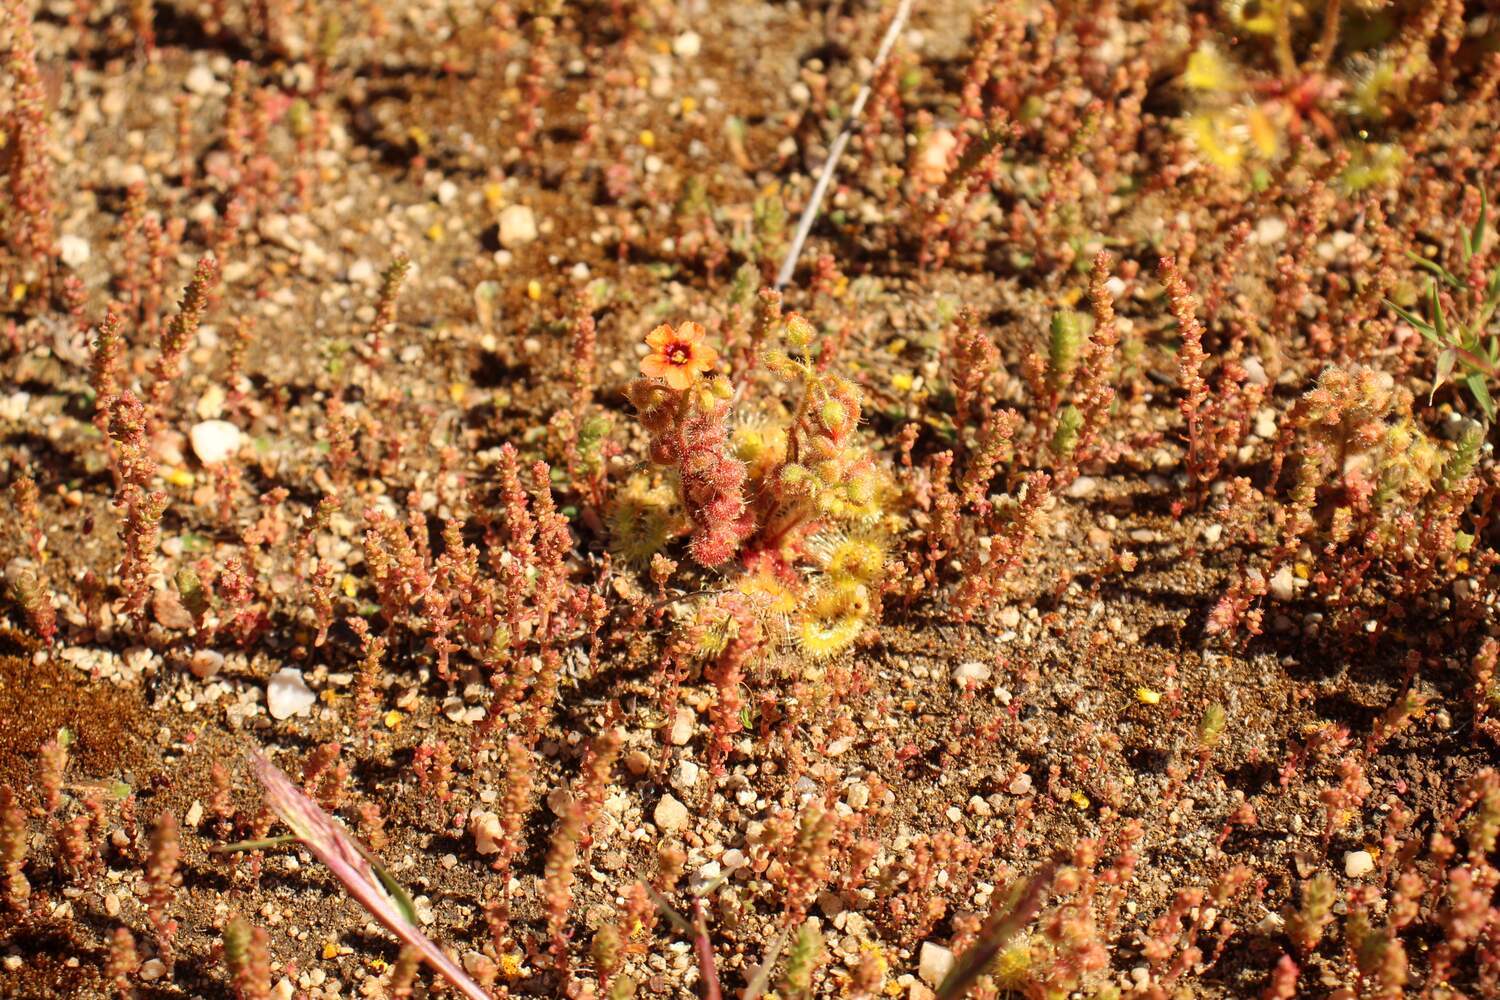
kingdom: Plantae
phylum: Tracheophyta
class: Magnoliopsida
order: Caryophyllales
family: Droseraceae
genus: Drosera
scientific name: Drosera glanduligera
